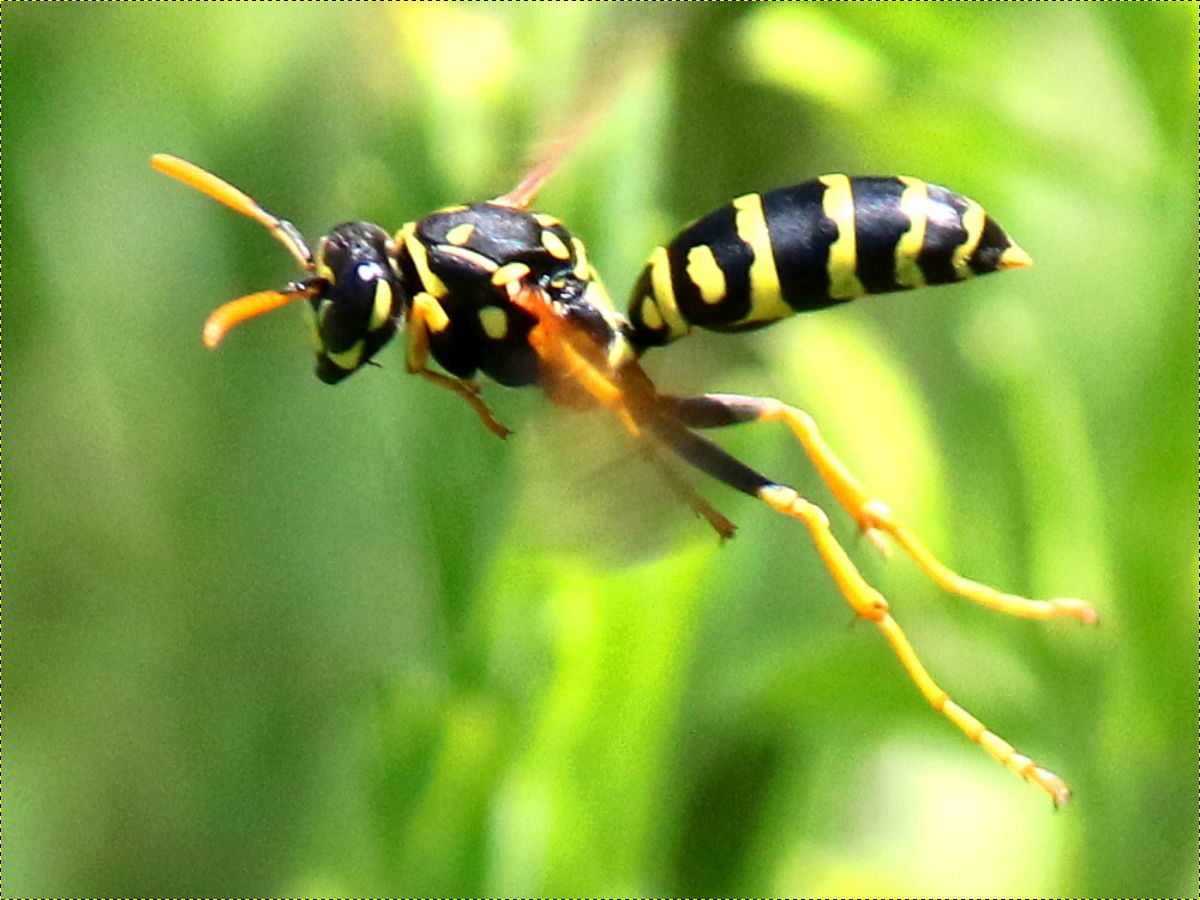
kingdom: Animalia
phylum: Arthropoda
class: Insecta
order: Hymenoptera
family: Eumenidae
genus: Polistes
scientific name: Polistes dominula
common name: Paper wasp
